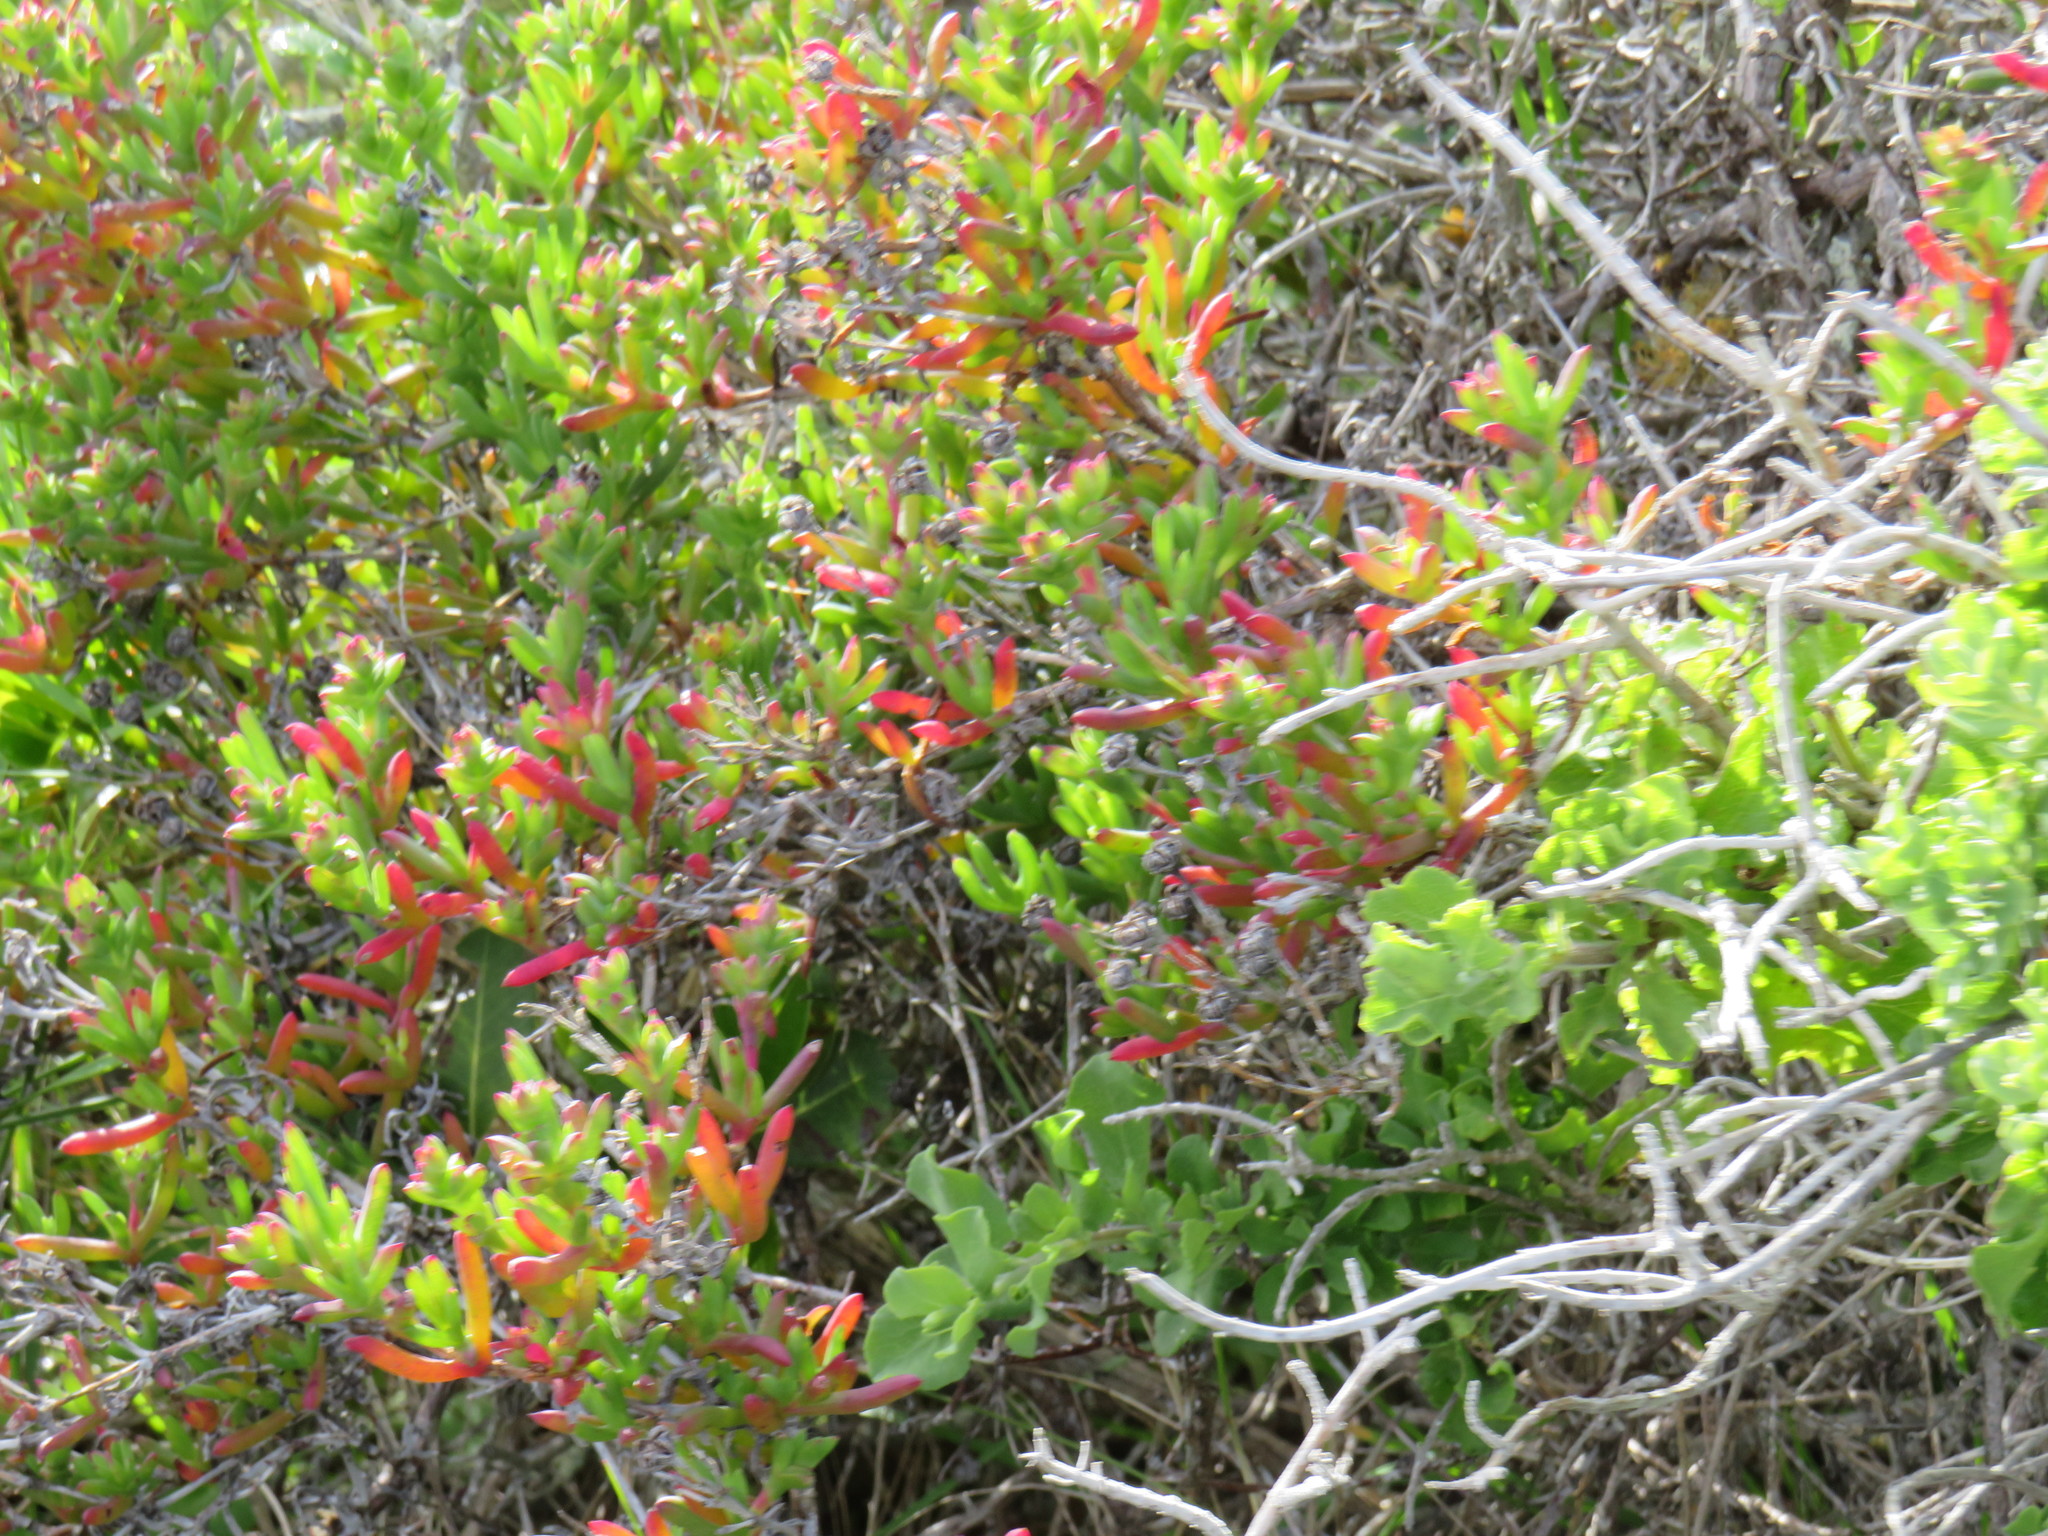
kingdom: Plantae
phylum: Tracheophyta
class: Magnoliopsida
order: Caryophyllales
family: Aizoaceae
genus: Ruschia
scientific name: Ruschia macowanii
